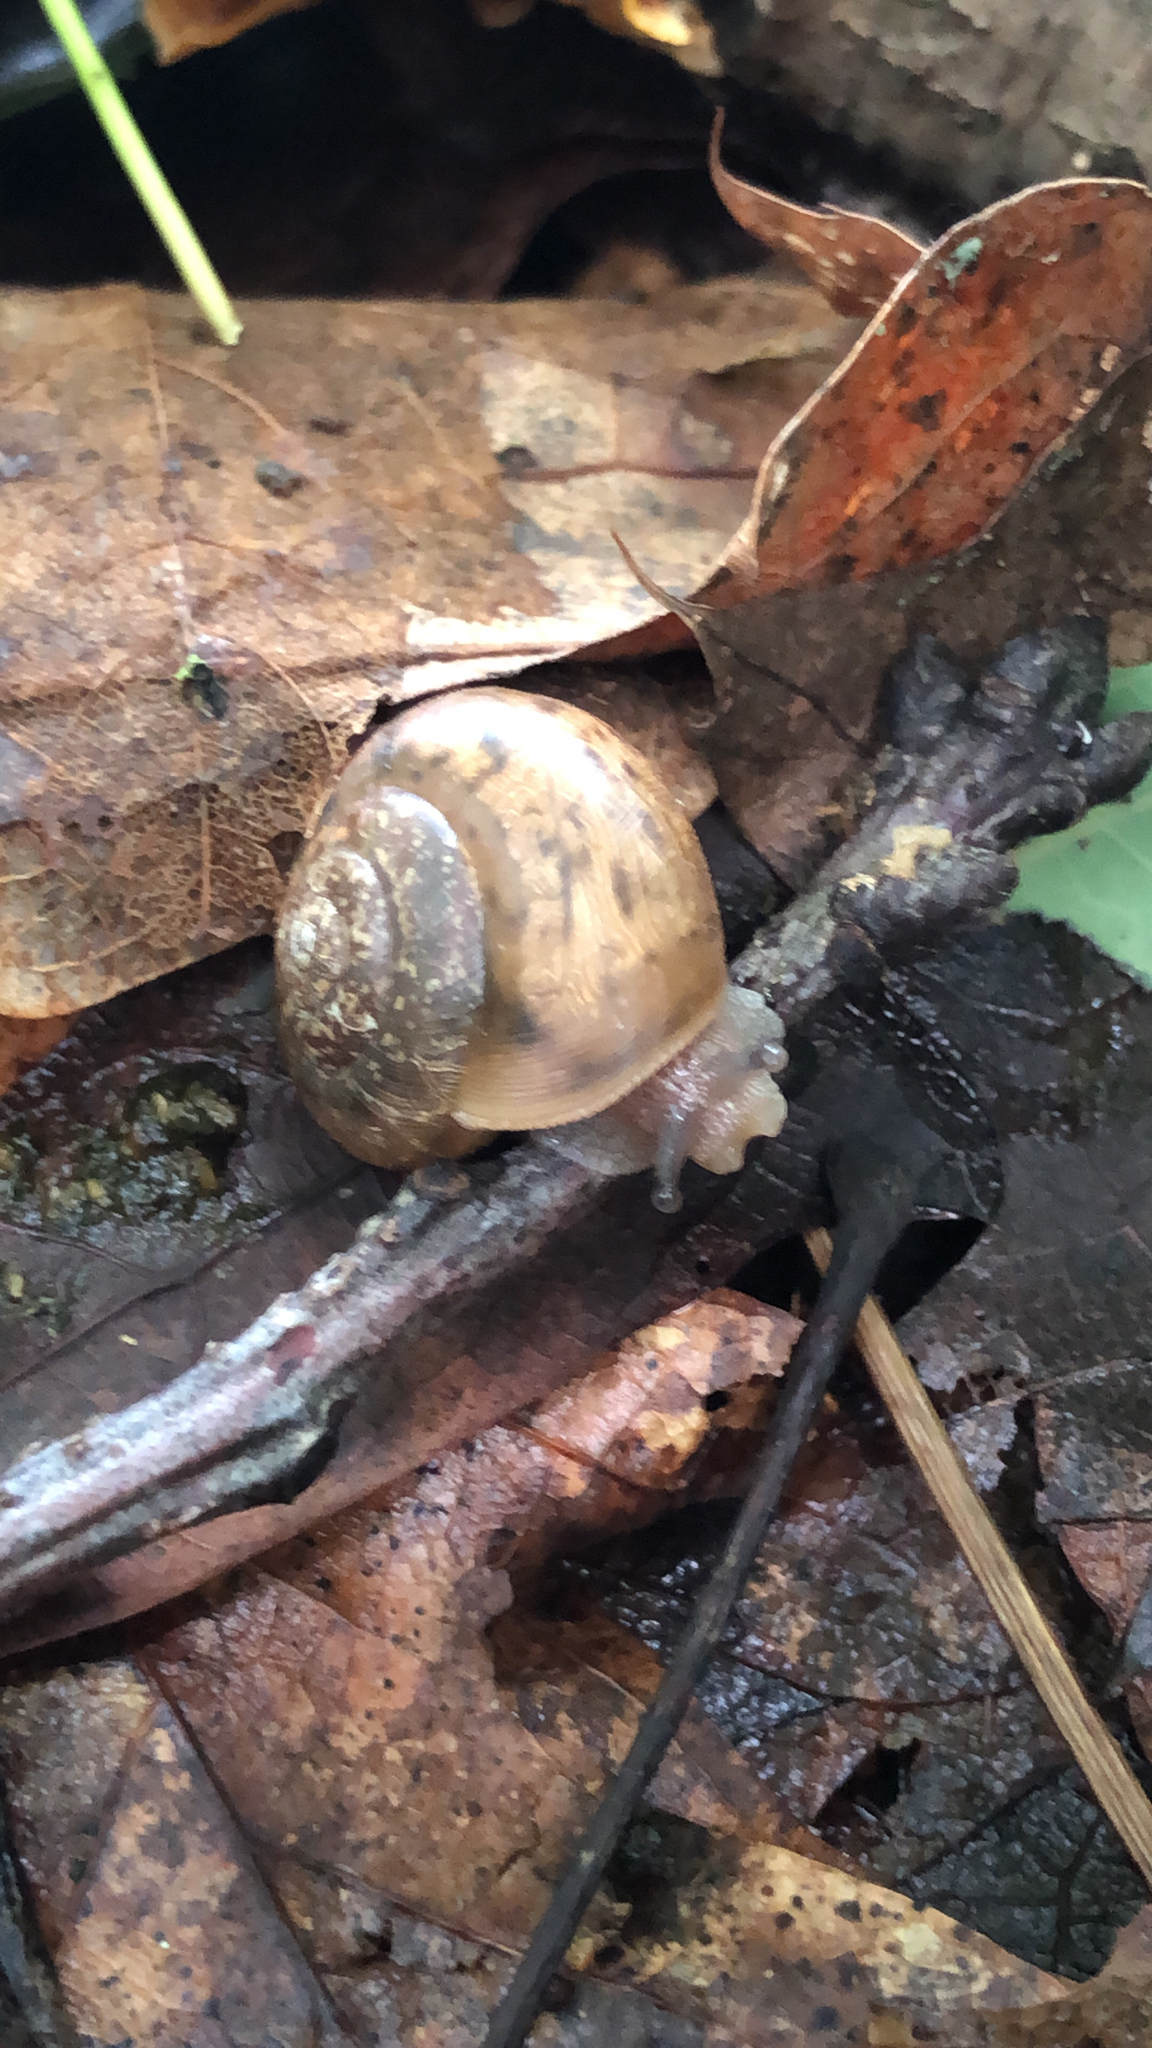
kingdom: Animalia
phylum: Mollusca
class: Gastropoda
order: Stylommatophora
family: Polygyridae
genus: Neohelix
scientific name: Neohelix albolabris
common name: Eastern whitelip
